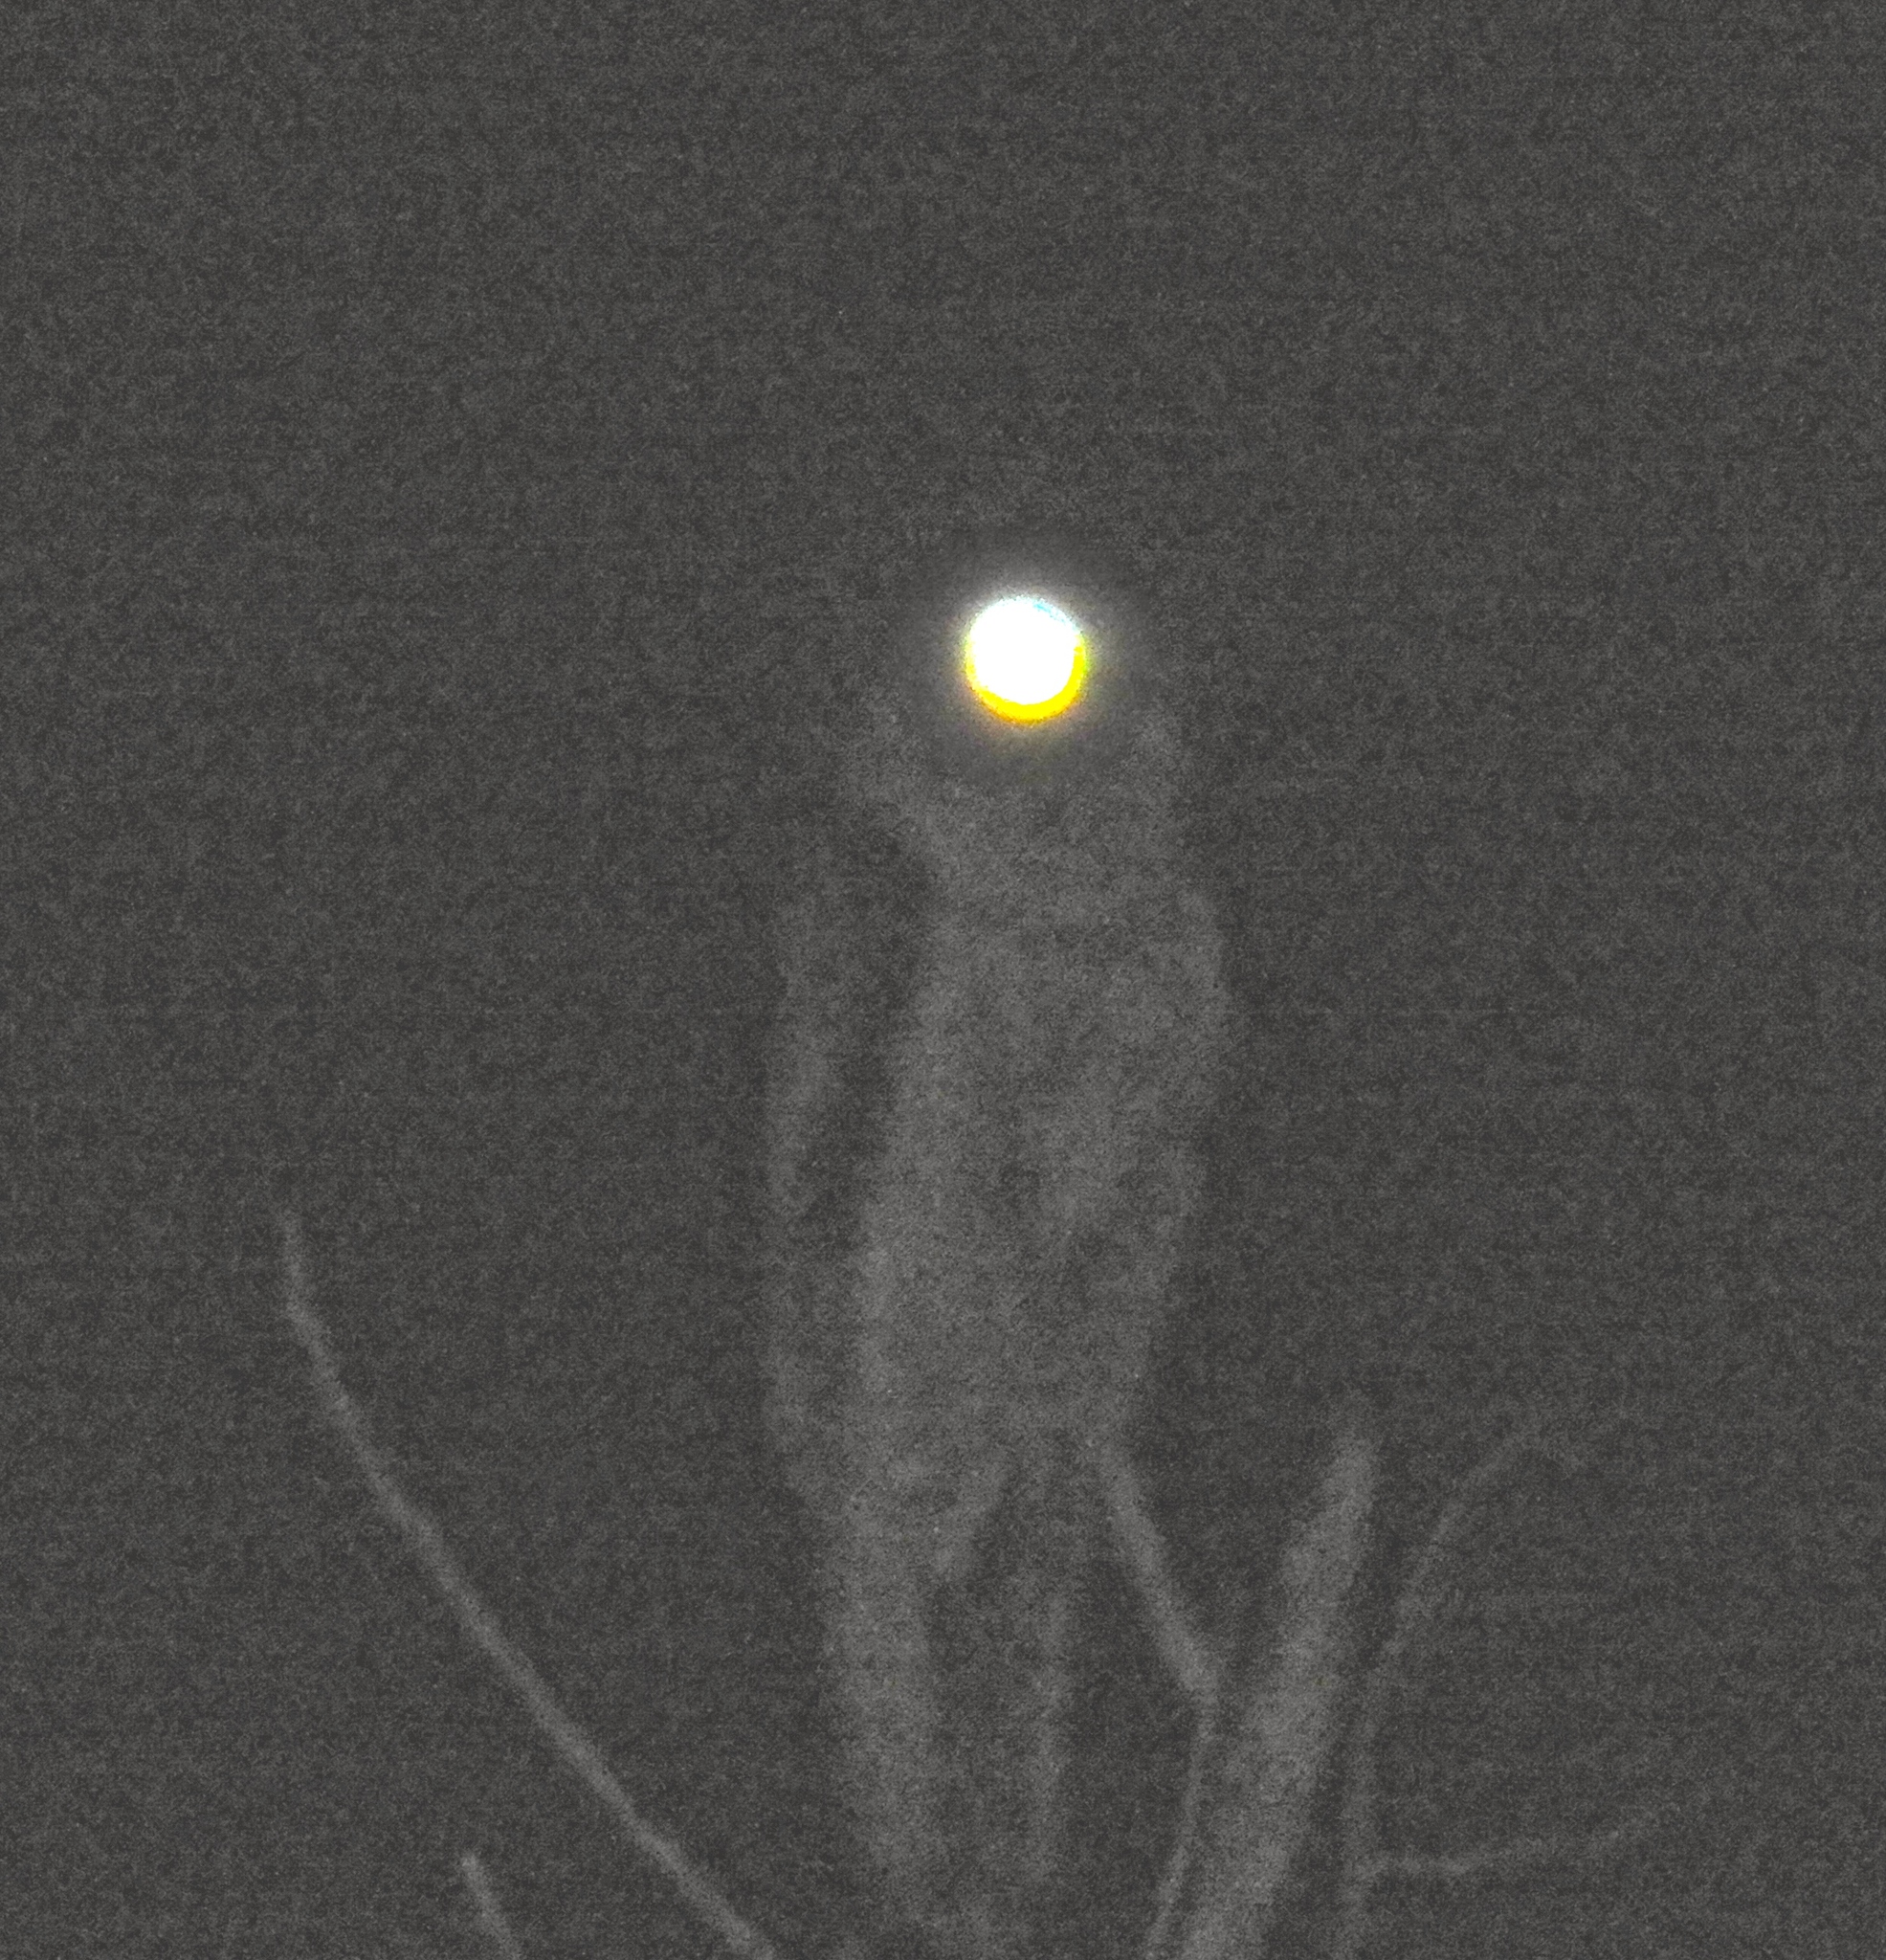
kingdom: Animalia
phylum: Chordata
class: Aves
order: Nyctibiiformes
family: Nyctibiidae
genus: Nyctibius
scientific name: Nyctibius jamaicensis
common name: Northern potoo
